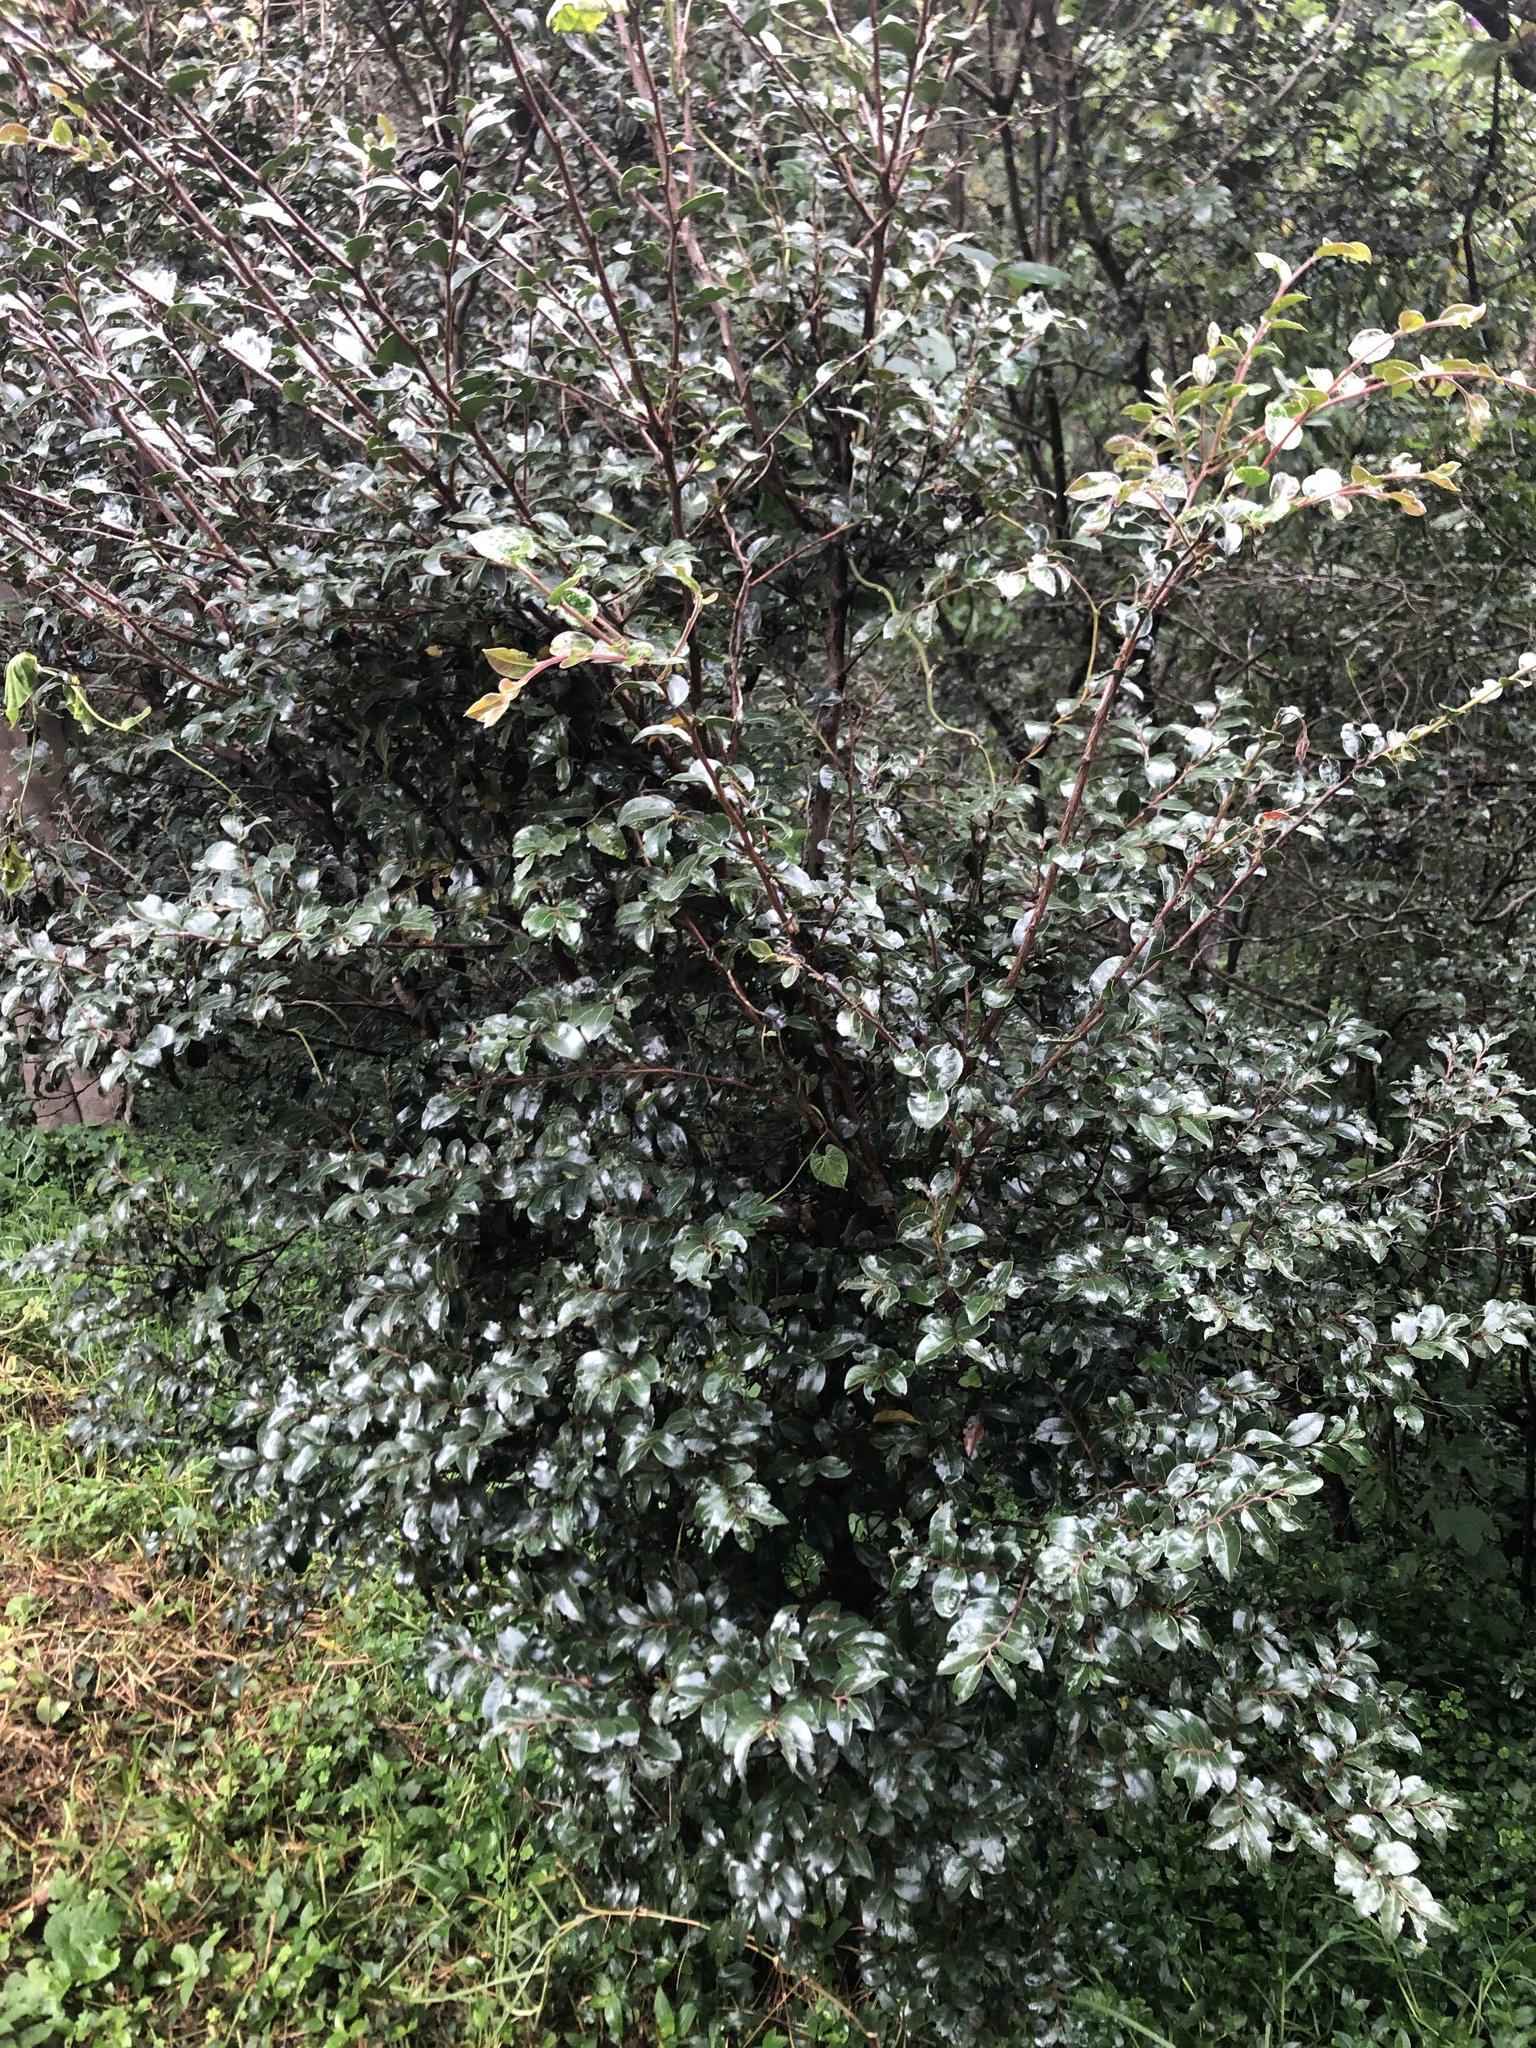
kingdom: Plantae
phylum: Tracheophyta
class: Magnoliopsida
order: Ericales
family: Ebenaceae
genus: Diospyros
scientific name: Diospyros whyteana
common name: Bladder-nut
